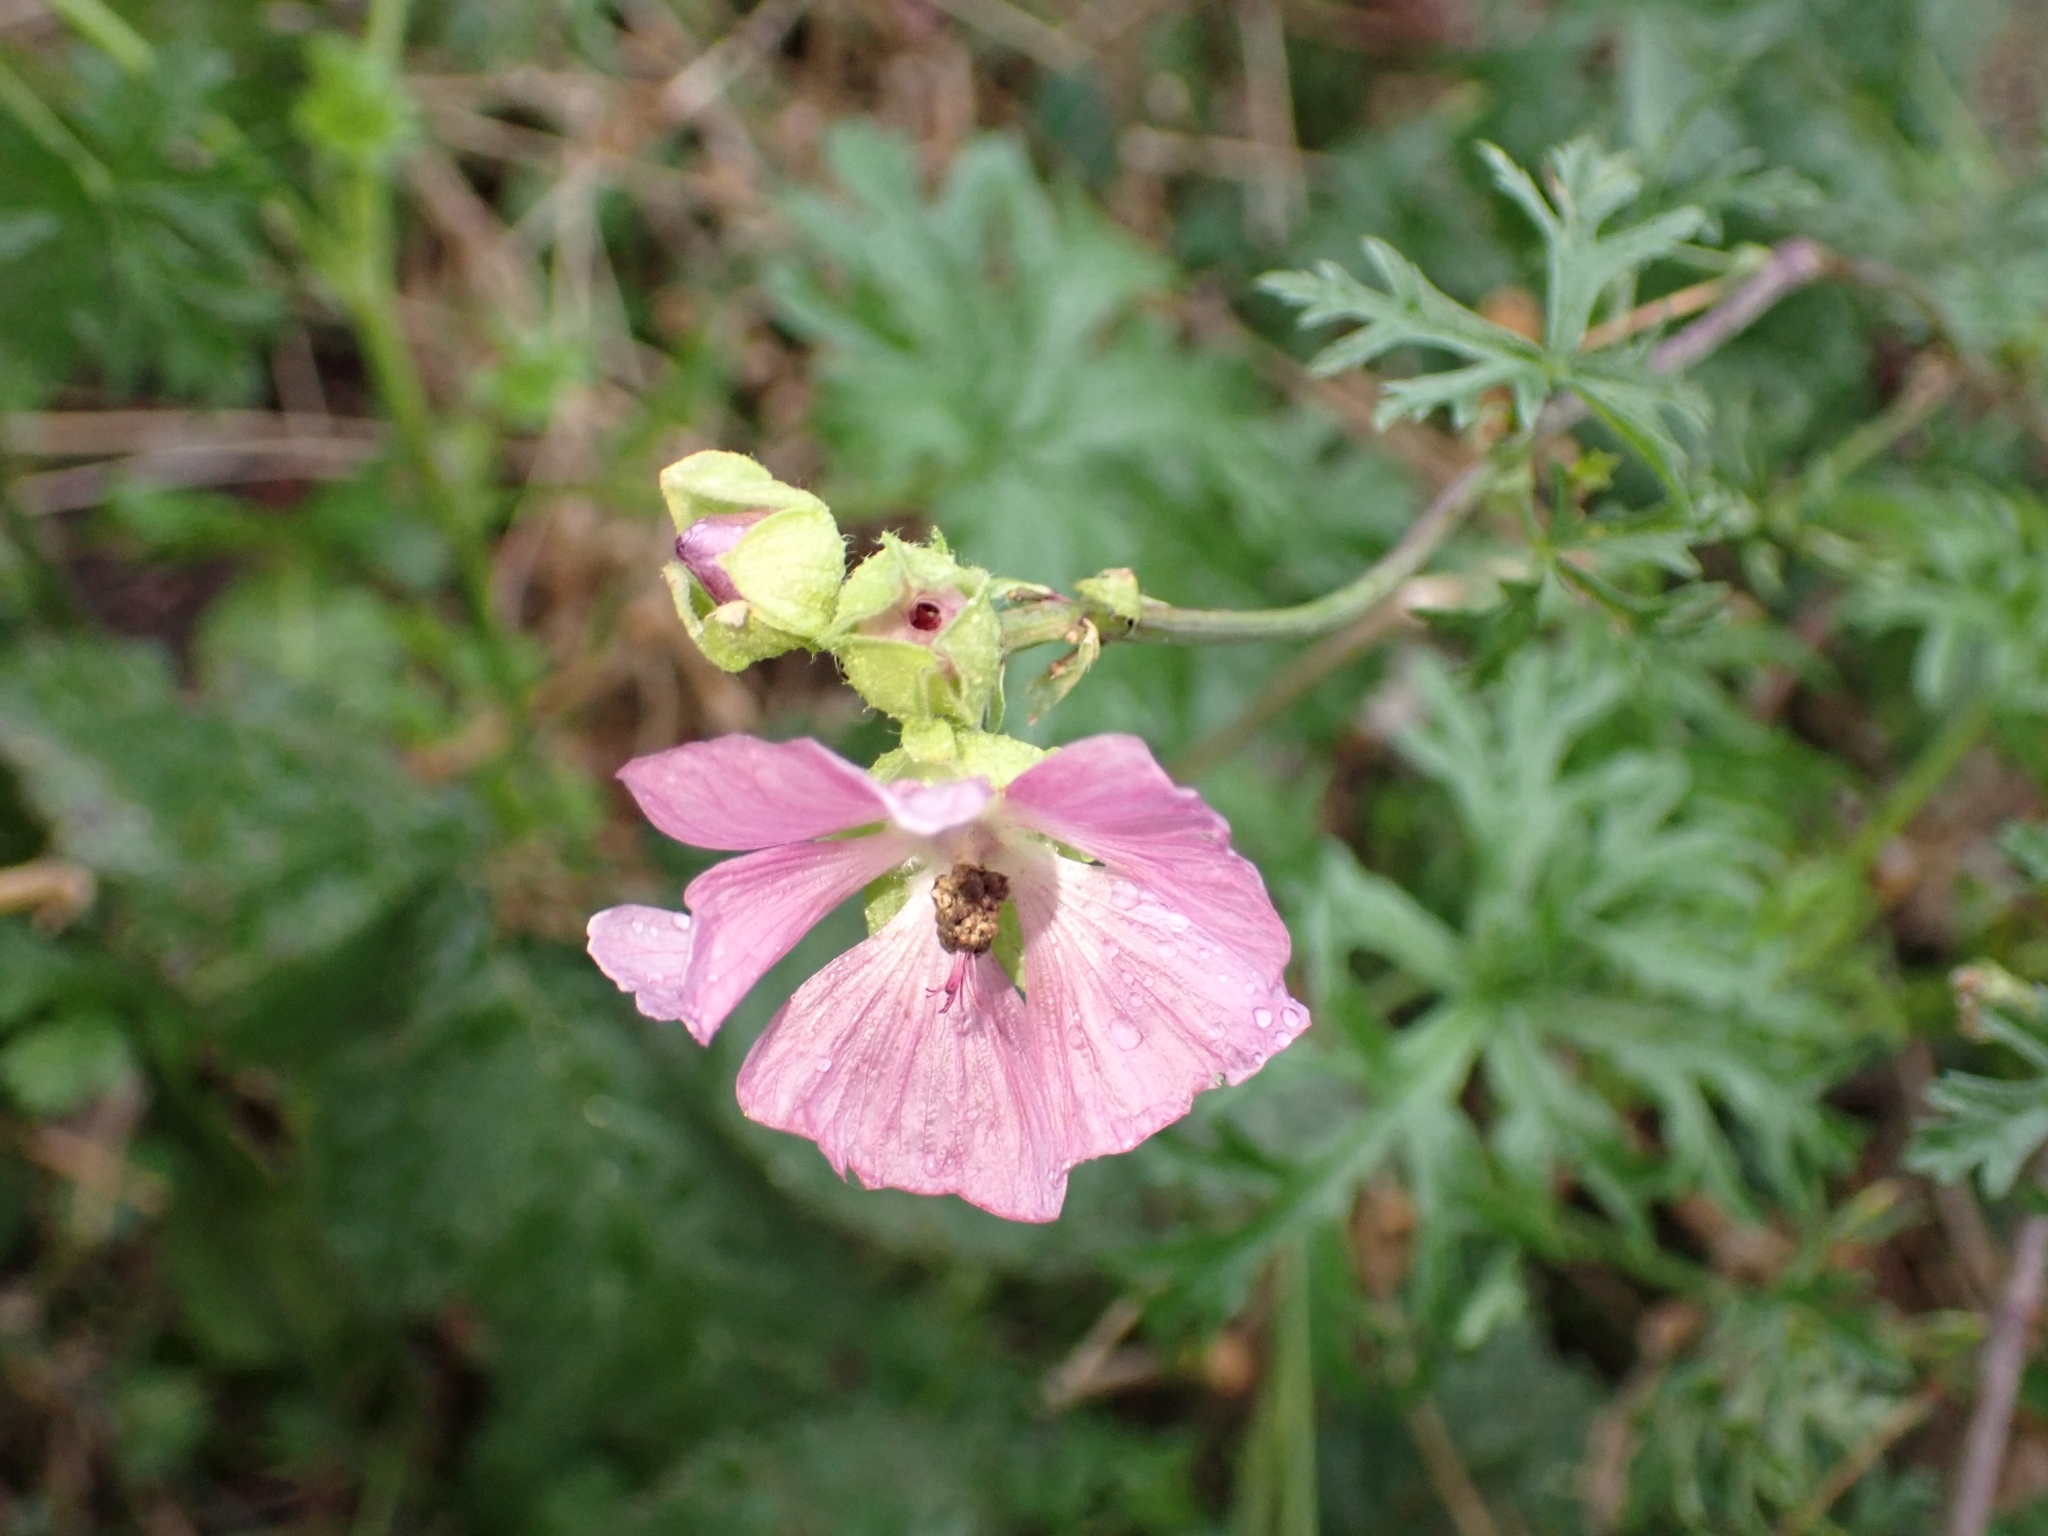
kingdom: Plantae
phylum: Tracheophyta
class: Magnoliopsida
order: Malvales
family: Malvaceae
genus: Malva
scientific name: Malva moschata
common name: Musk mallow
